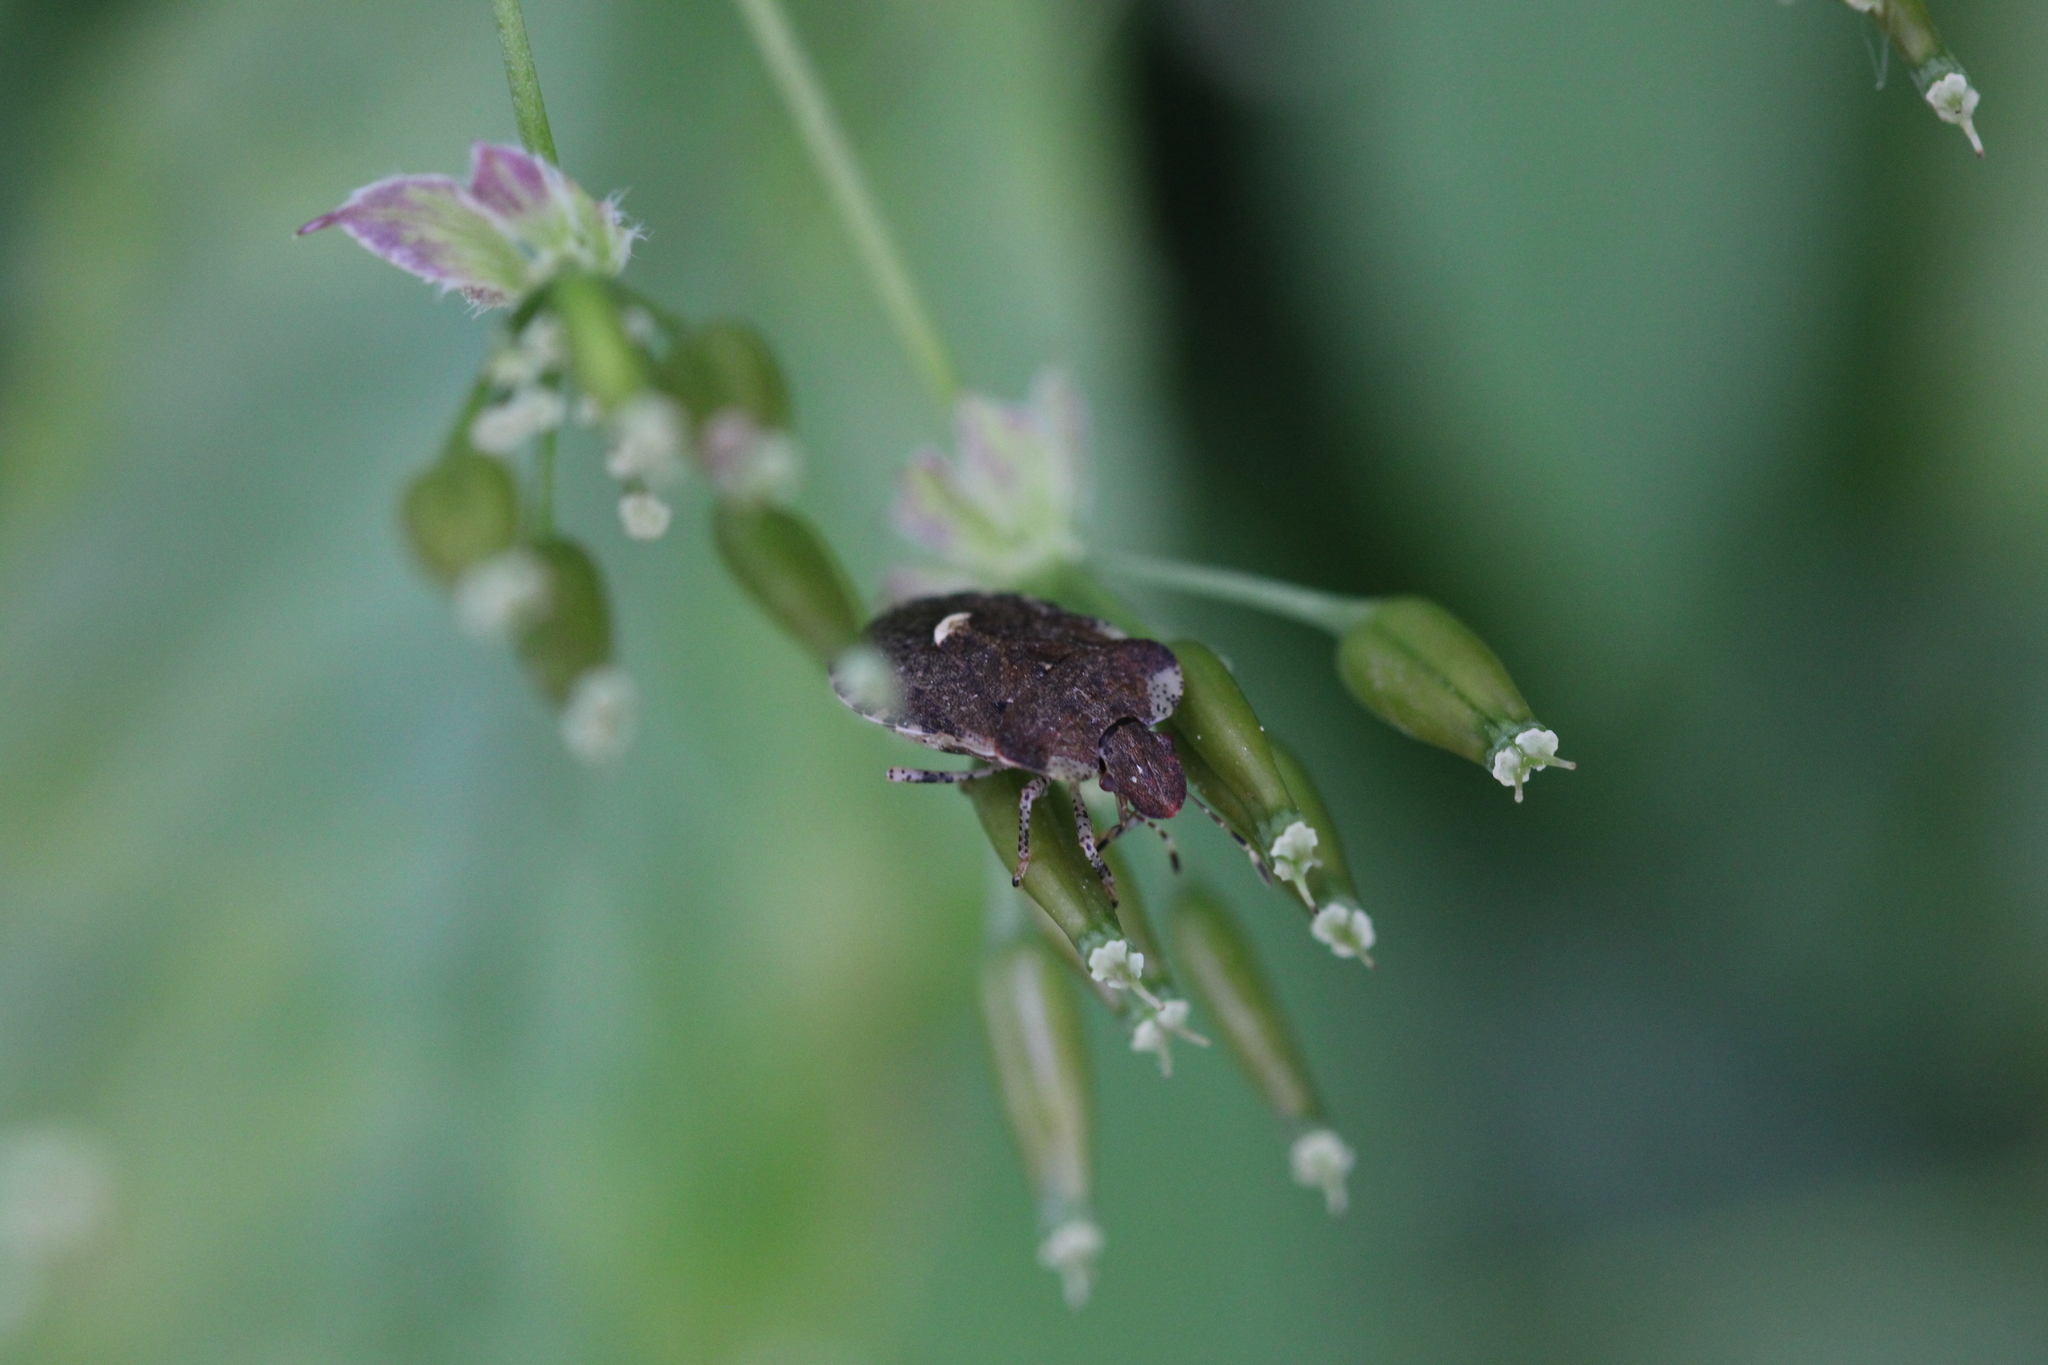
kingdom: Animalia
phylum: Arthropoda
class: Insecta
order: Hemiptera
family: Pentatomidae
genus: Dyroderes
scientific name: Dyroderes umbraculatus
